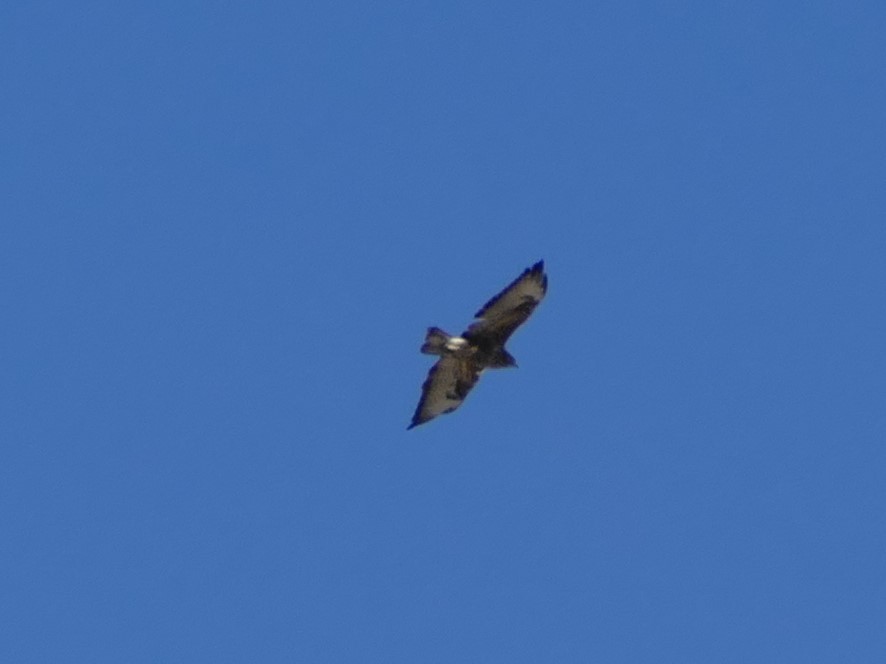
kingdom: Animalia
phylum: Chordata
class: Aves
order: Accipitriformes
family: Accipitridae
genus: Buteo
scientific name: Buteo buteo
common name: Common buzzard
